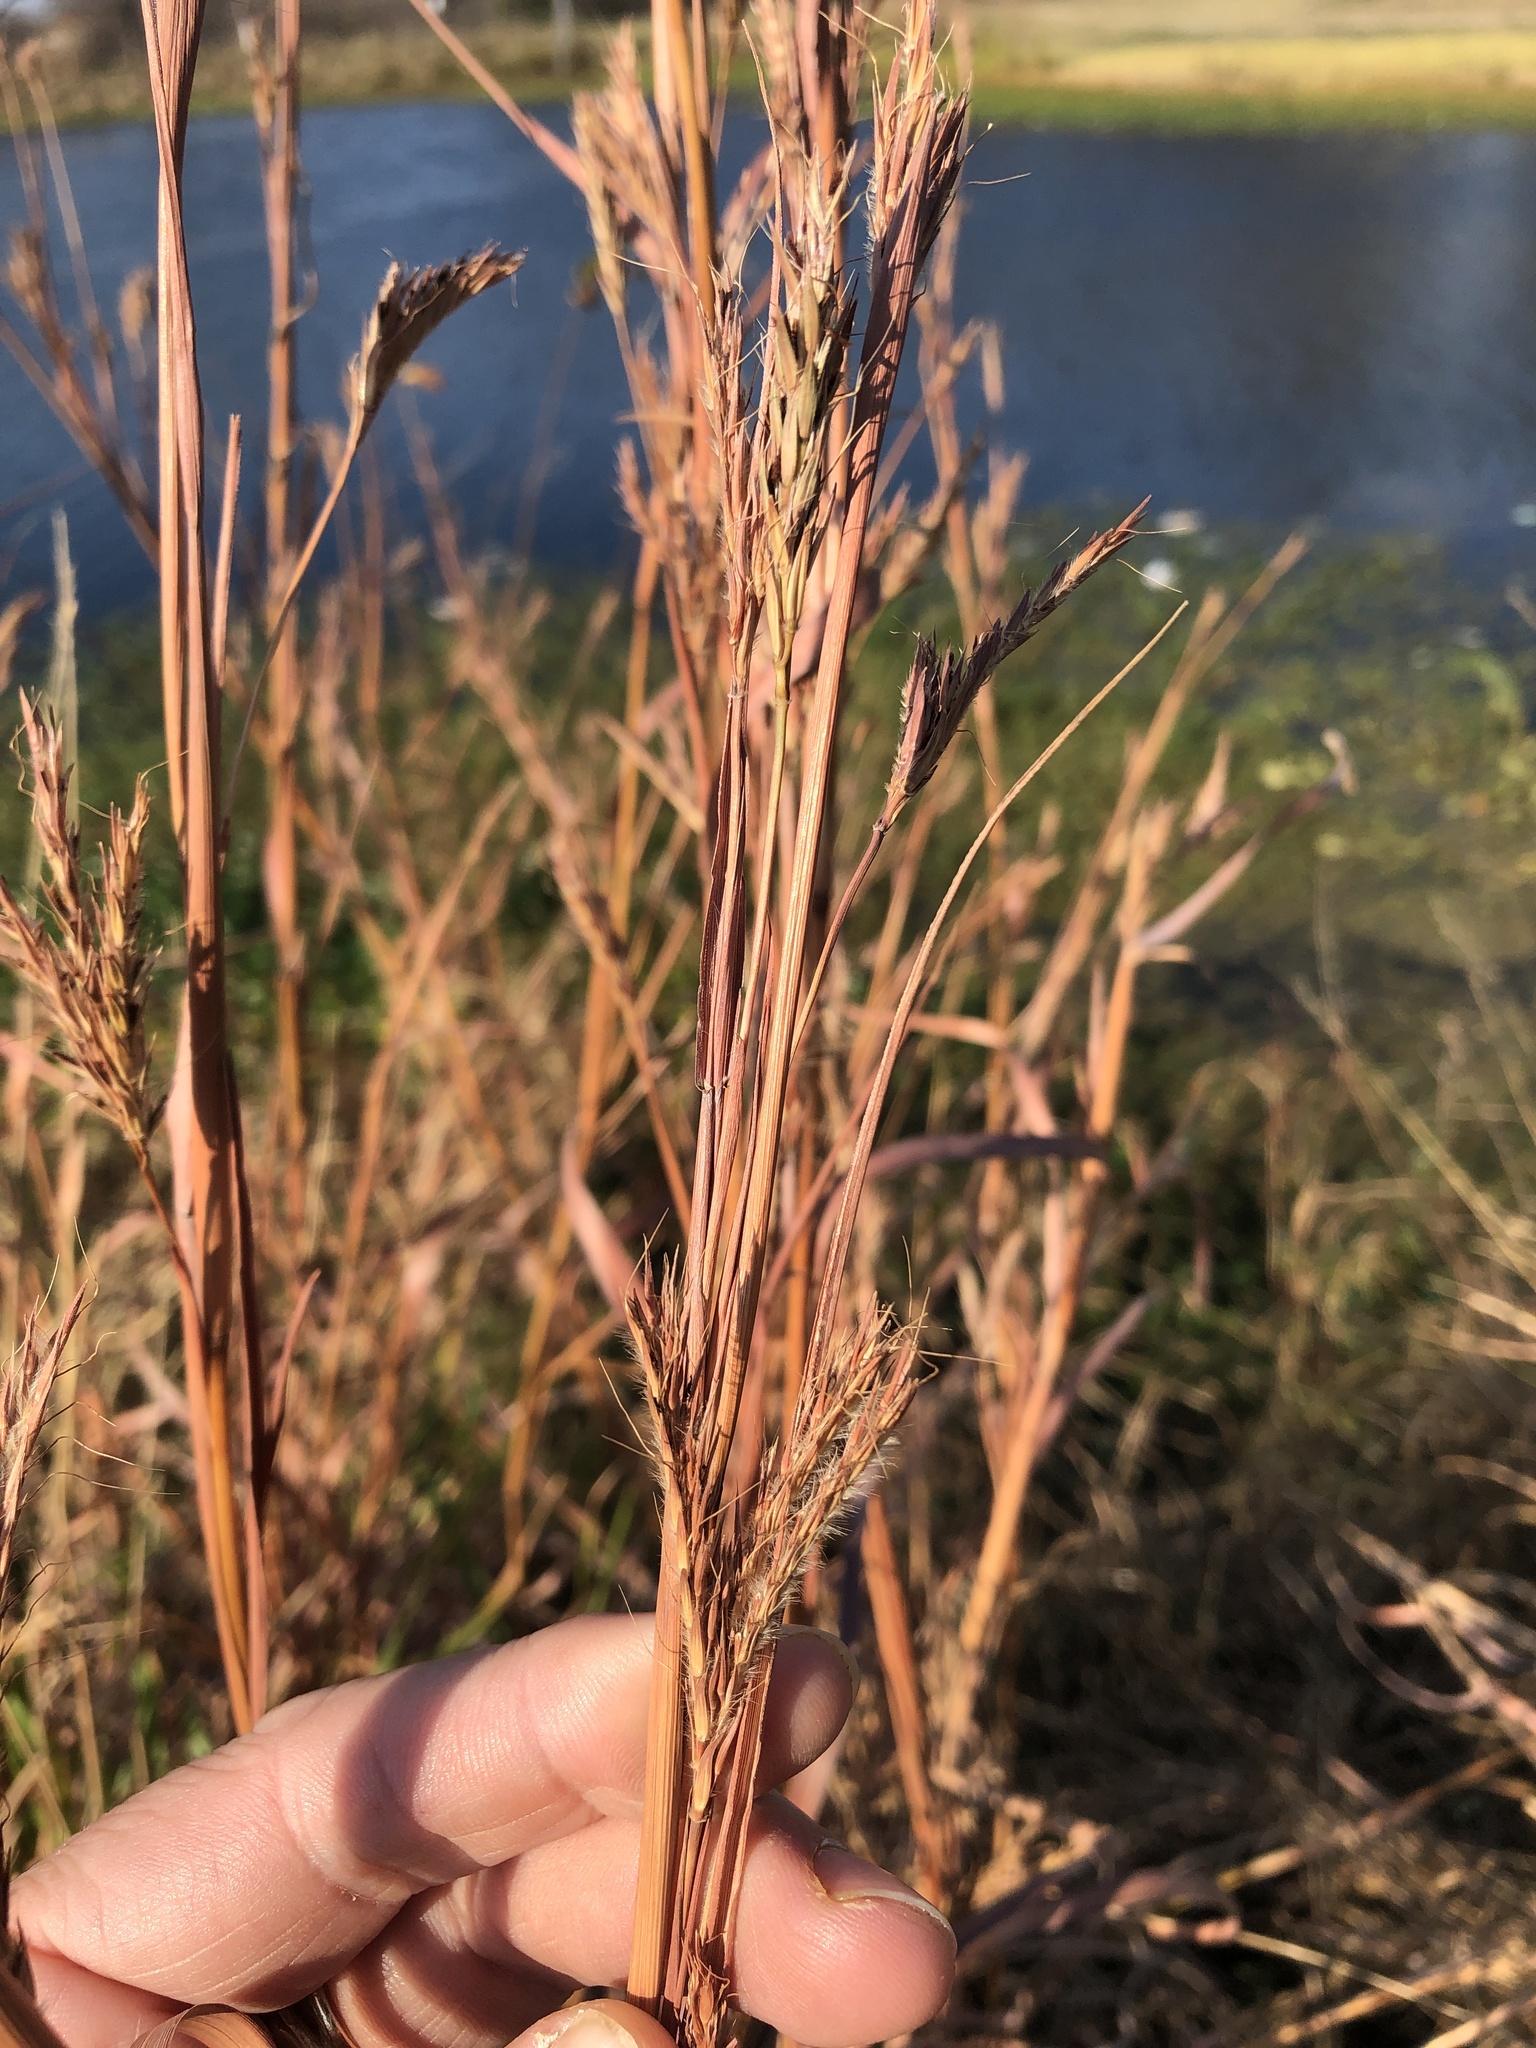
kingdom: Plantae
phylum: Tracheophyta
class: Liliopsida
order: Poales
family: Poaceae
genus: Andropogon
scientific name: Andropogon gerardi
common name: Big bluestem
